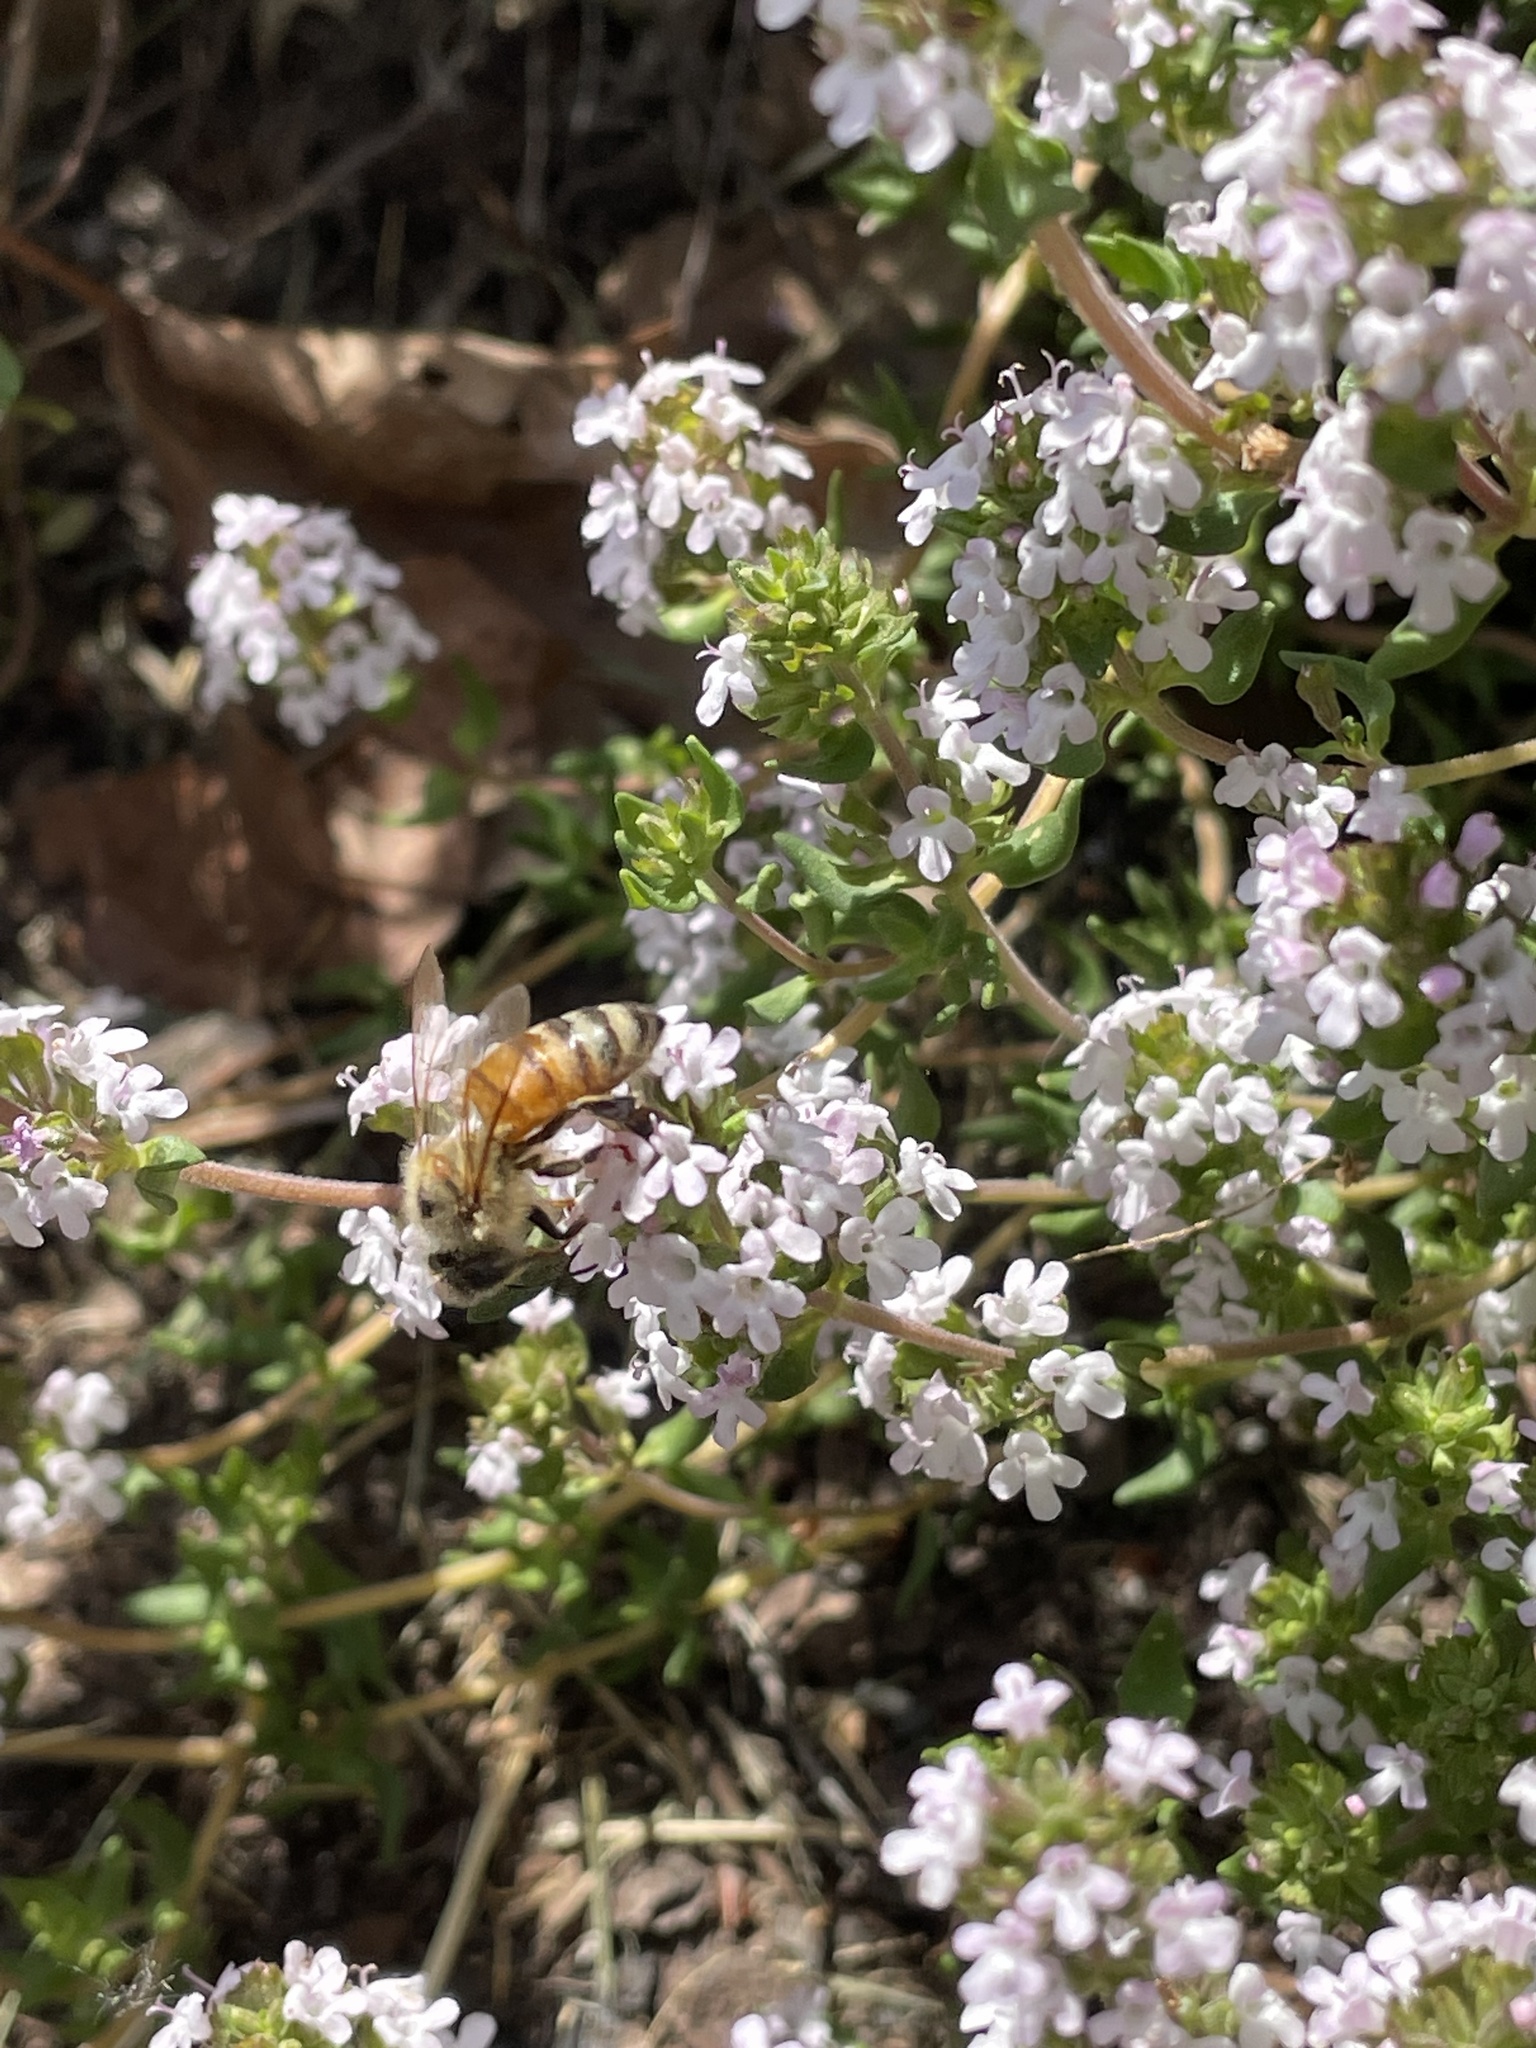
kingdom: Animalia
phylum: Arthropoda
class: Insecta
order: Hymenoptera
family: Apidae
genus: Apis
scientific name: Apis mellifera
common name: Honey bee
